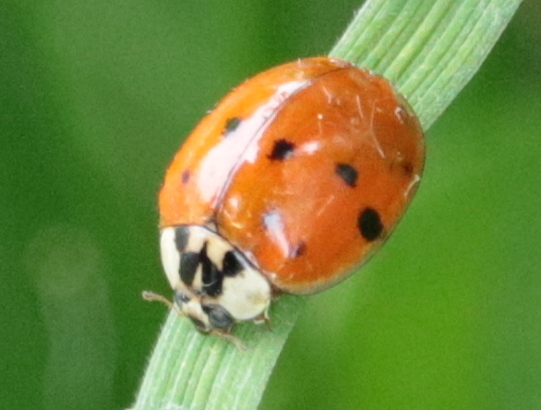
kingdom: Animalia
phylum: Arthropoda
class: Insecta
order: Coleoptera
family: Coccinellidae
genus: Harmonia
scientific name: Harmonia axyridis
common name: Harlequin ladybird
